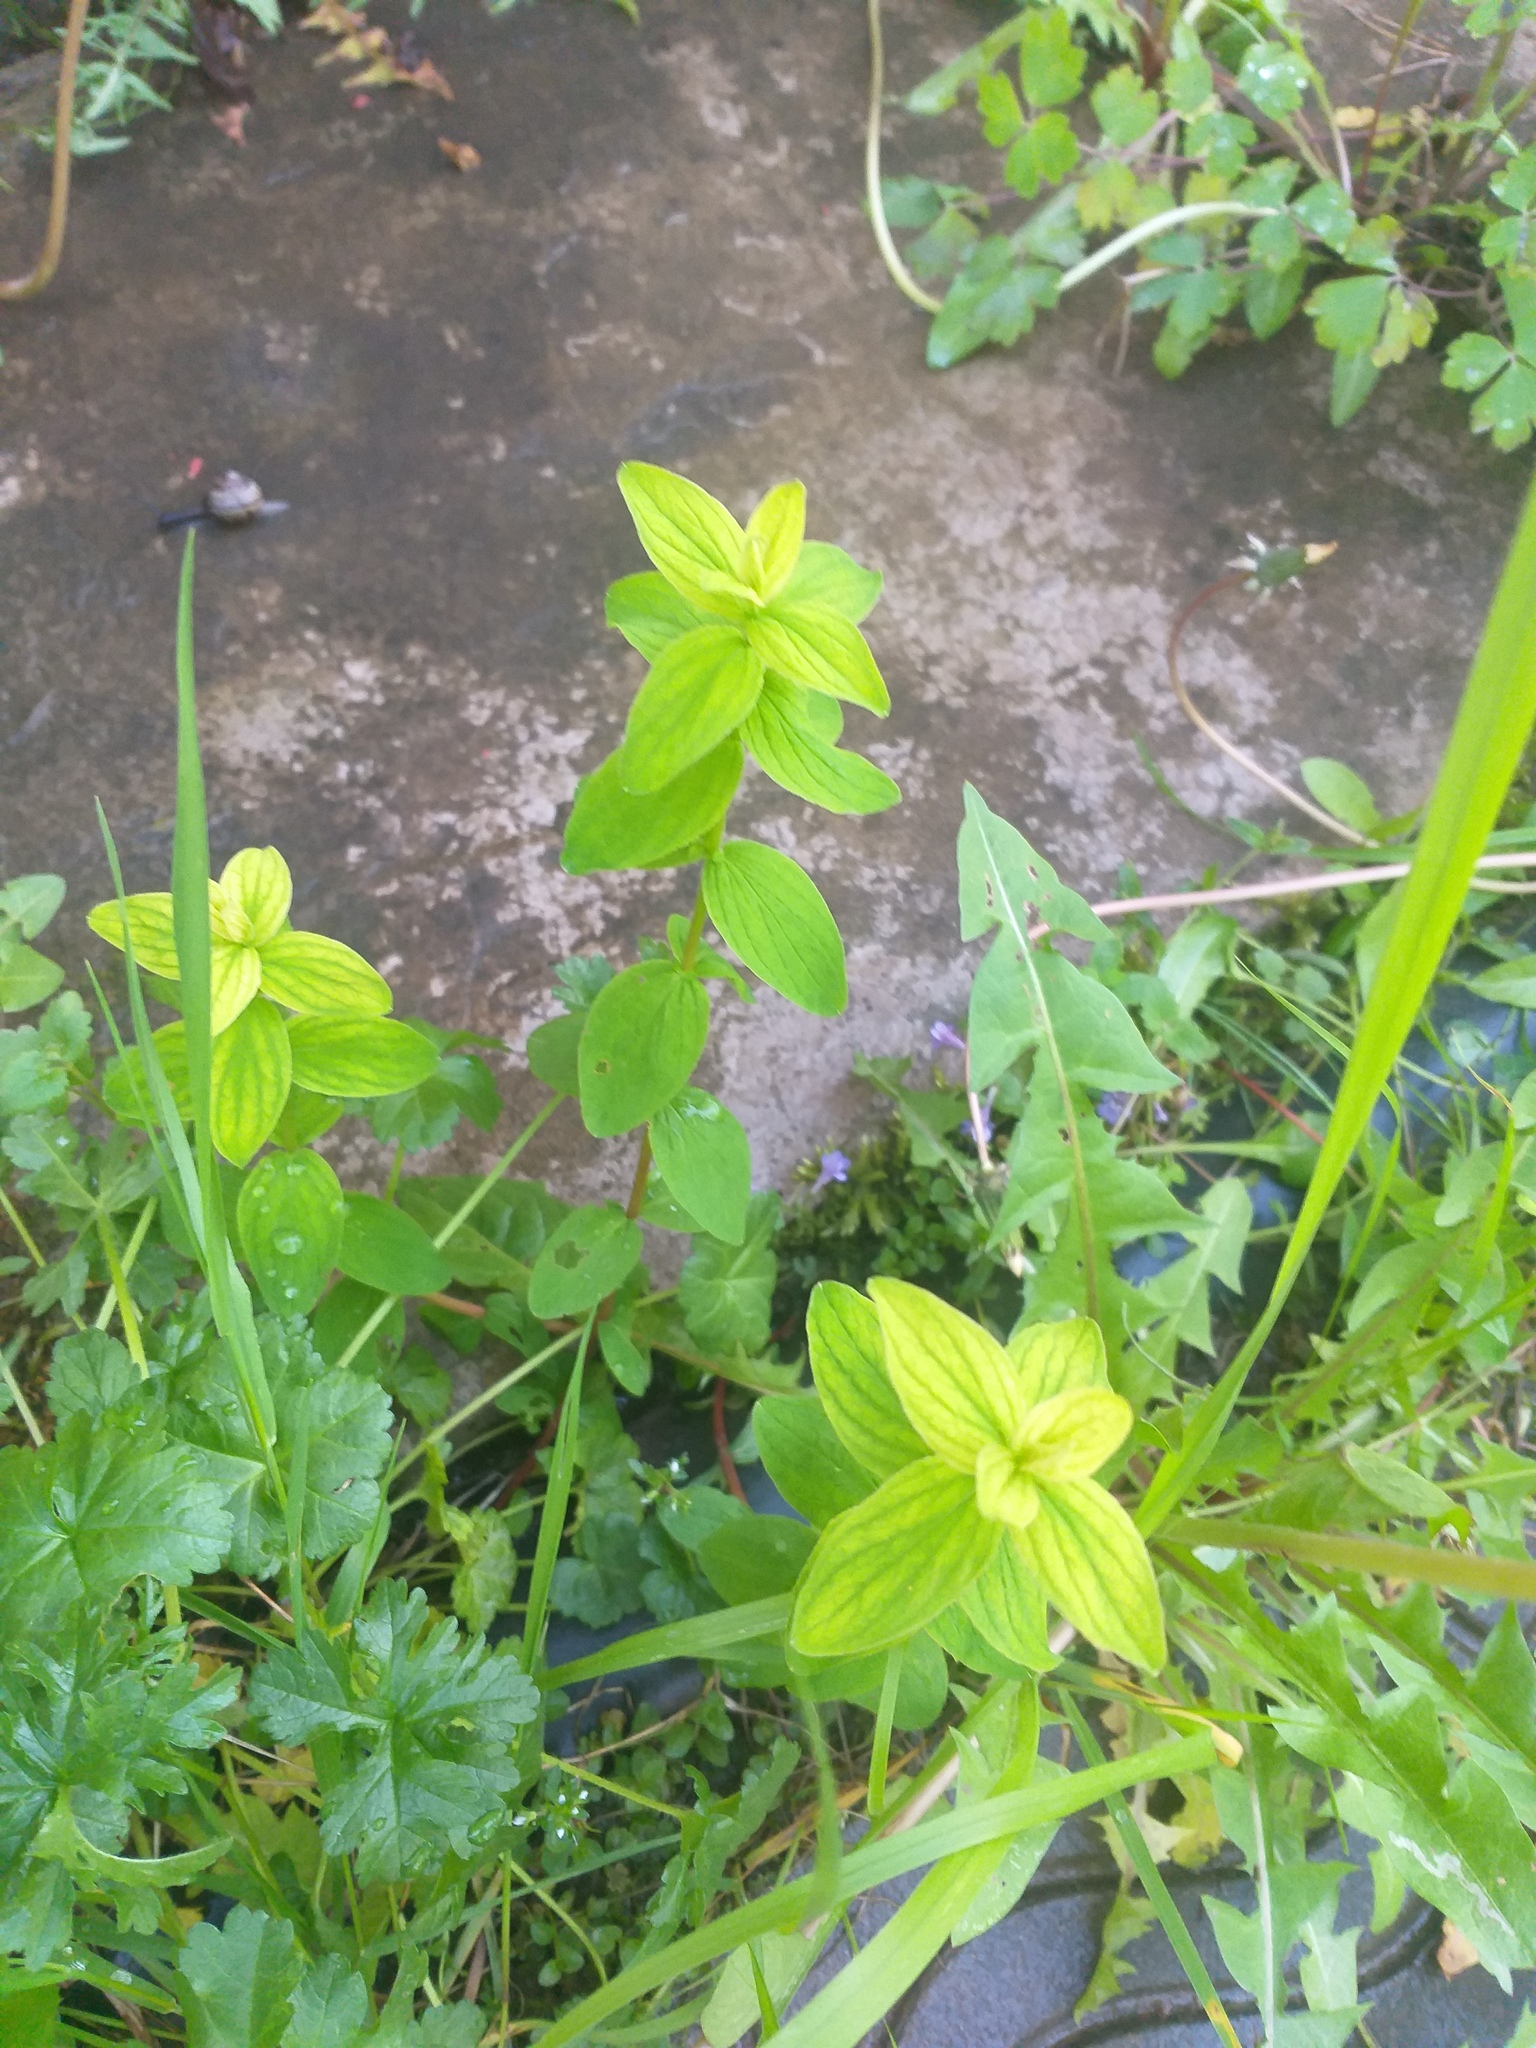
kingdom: Plantae
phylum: Tracheophyta
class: Magnoliopsida
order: Malpighiales
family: Hypericaceae
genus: Hypericum
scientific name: Hypericum maculatum
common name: Imperforate st. john's-wort
